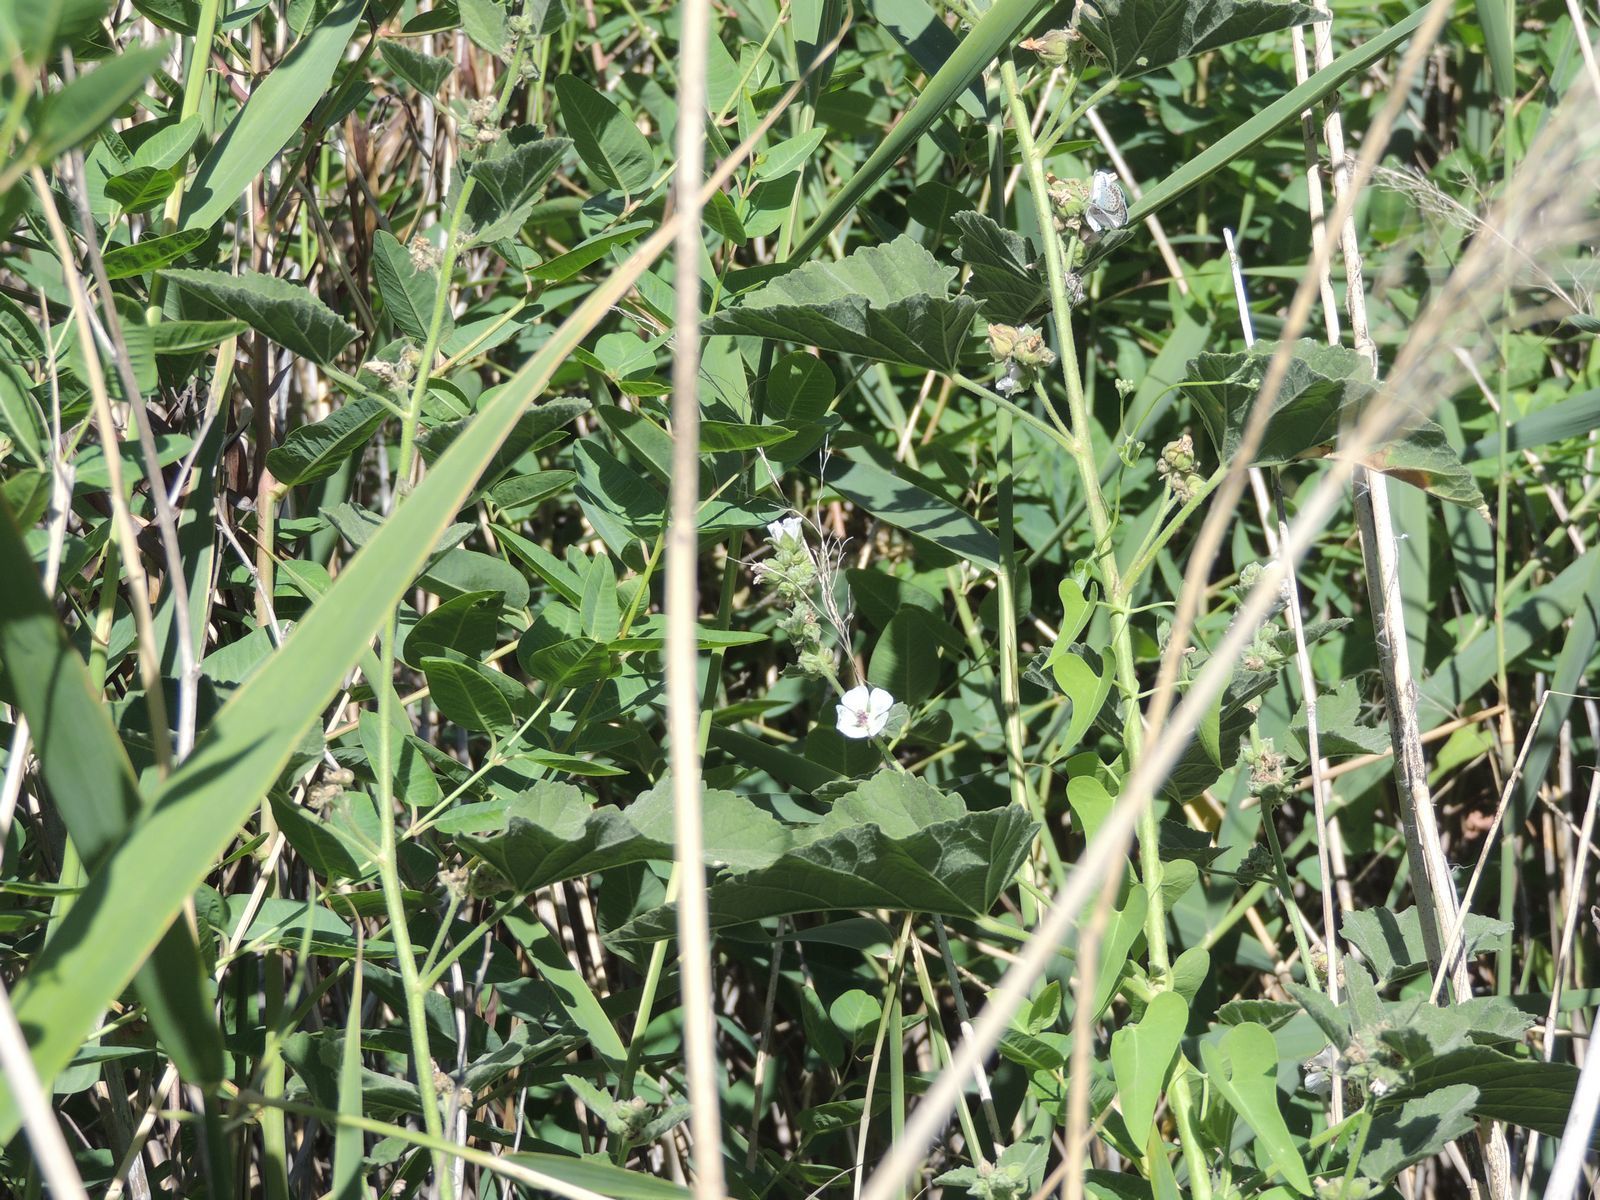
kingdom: Plantae
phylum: Tracheophyta
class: Magnoliopsida
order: Malvales
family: Malvaceae
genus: Althaea
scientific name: Althaea officinalis
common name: Marsh-mallow
